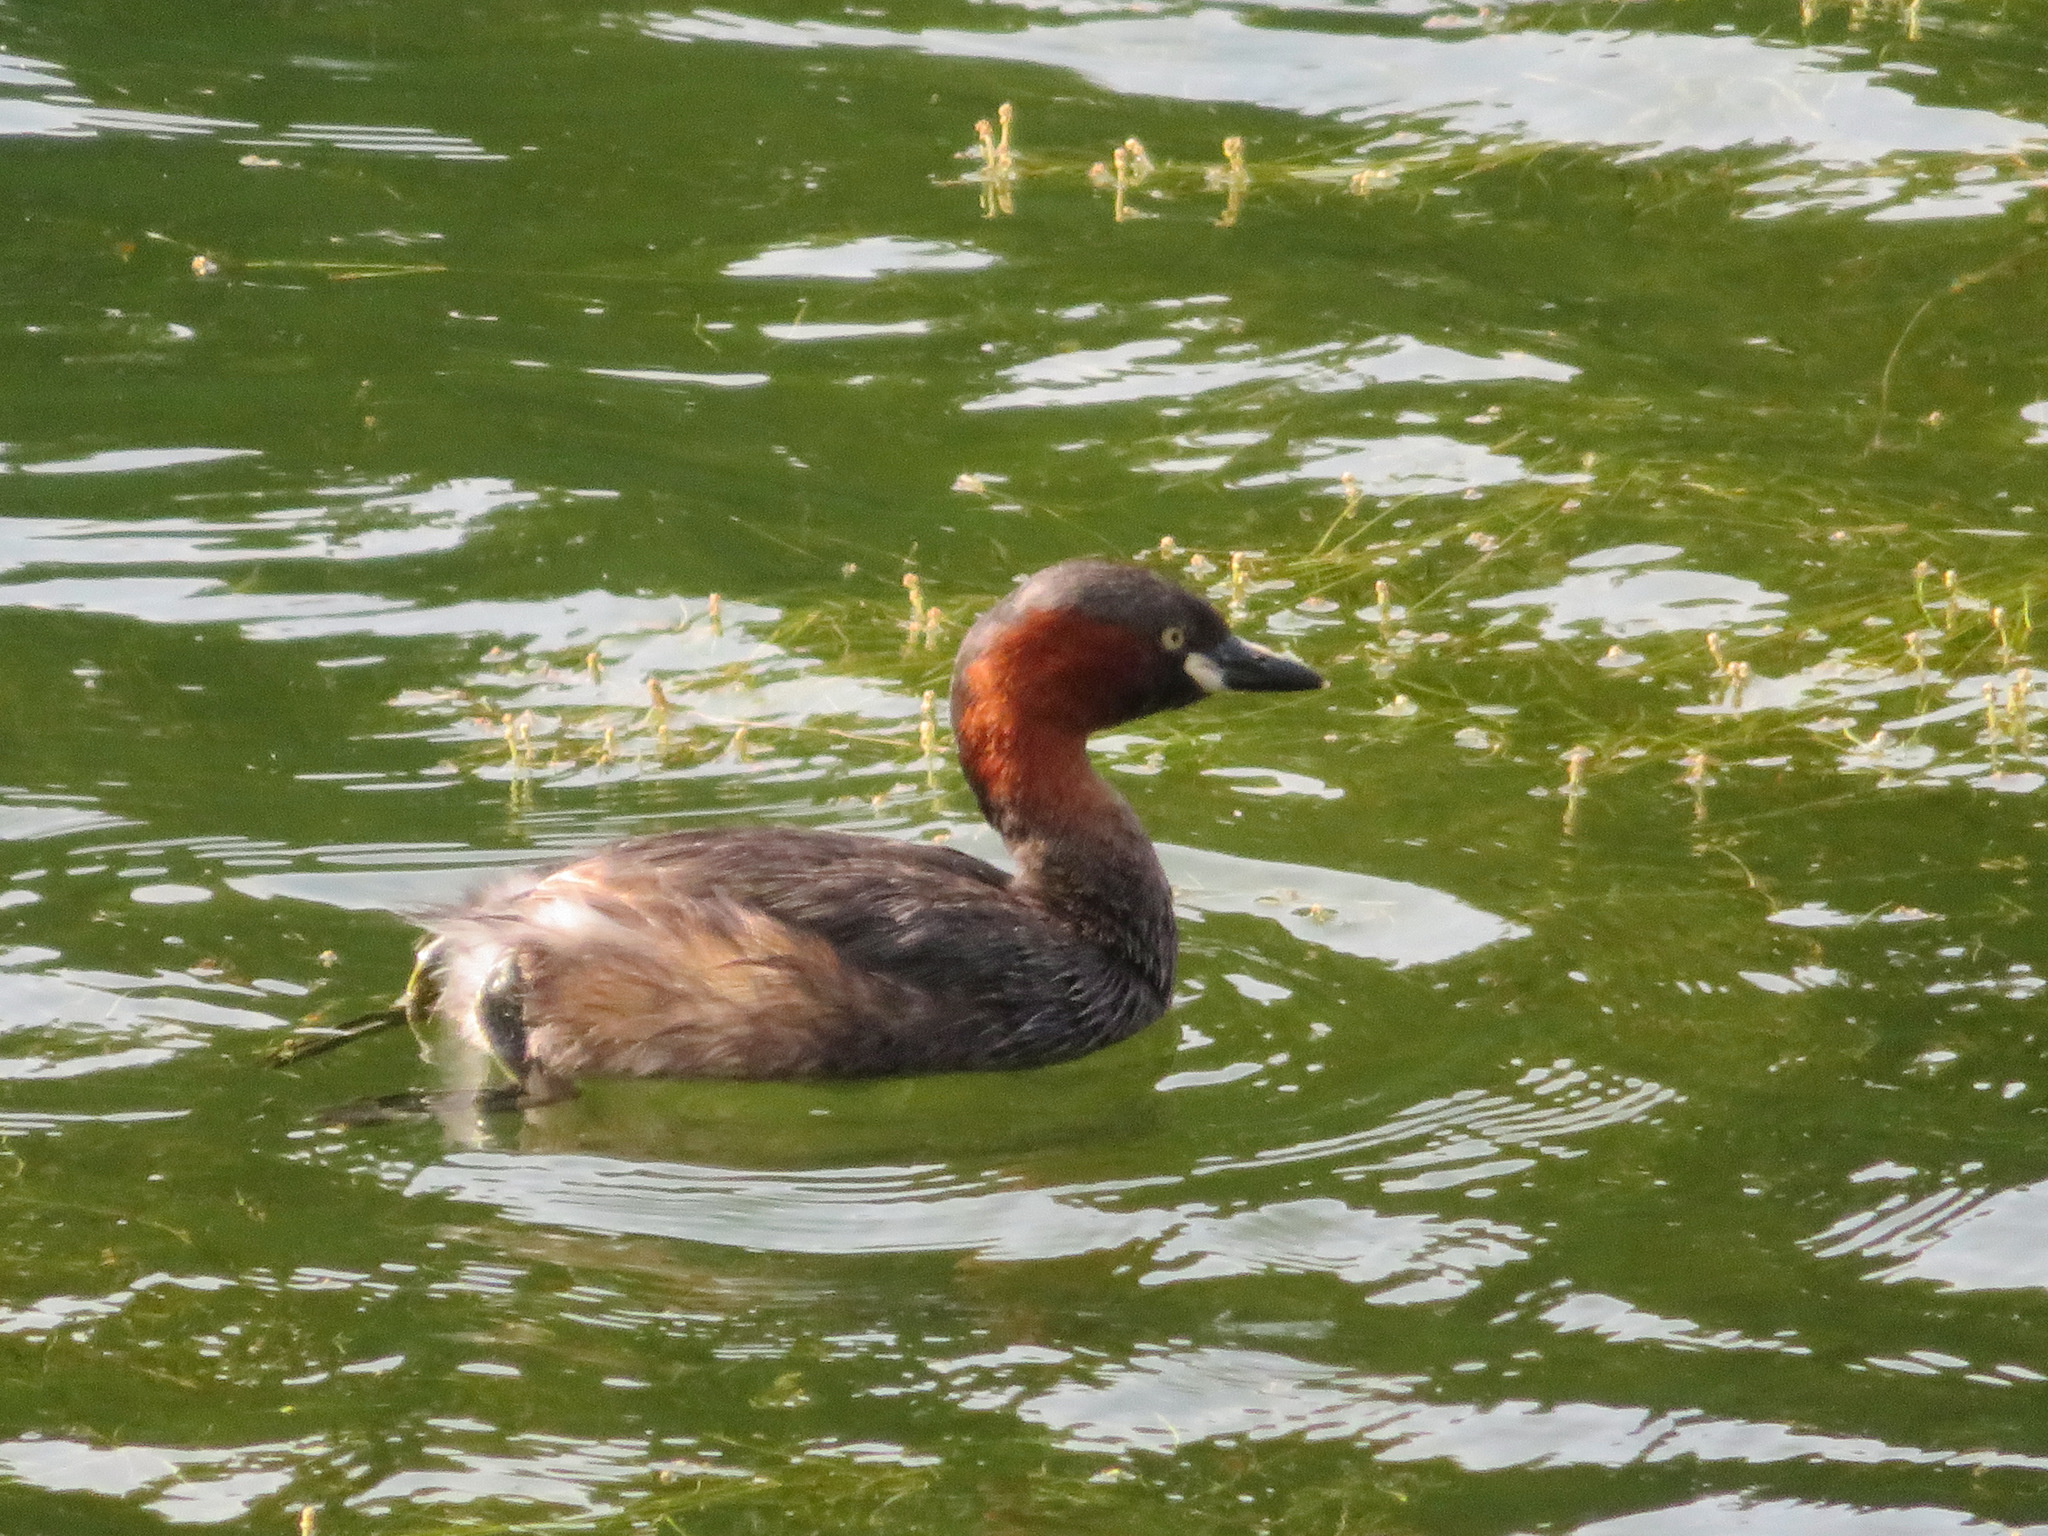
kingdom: Animalia
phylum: Chordata
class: Aves
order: Podicipediformes
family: Podicipedidae
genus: Tachybaptus
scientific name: Tachybaptus ruficollis
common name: Little grebe
